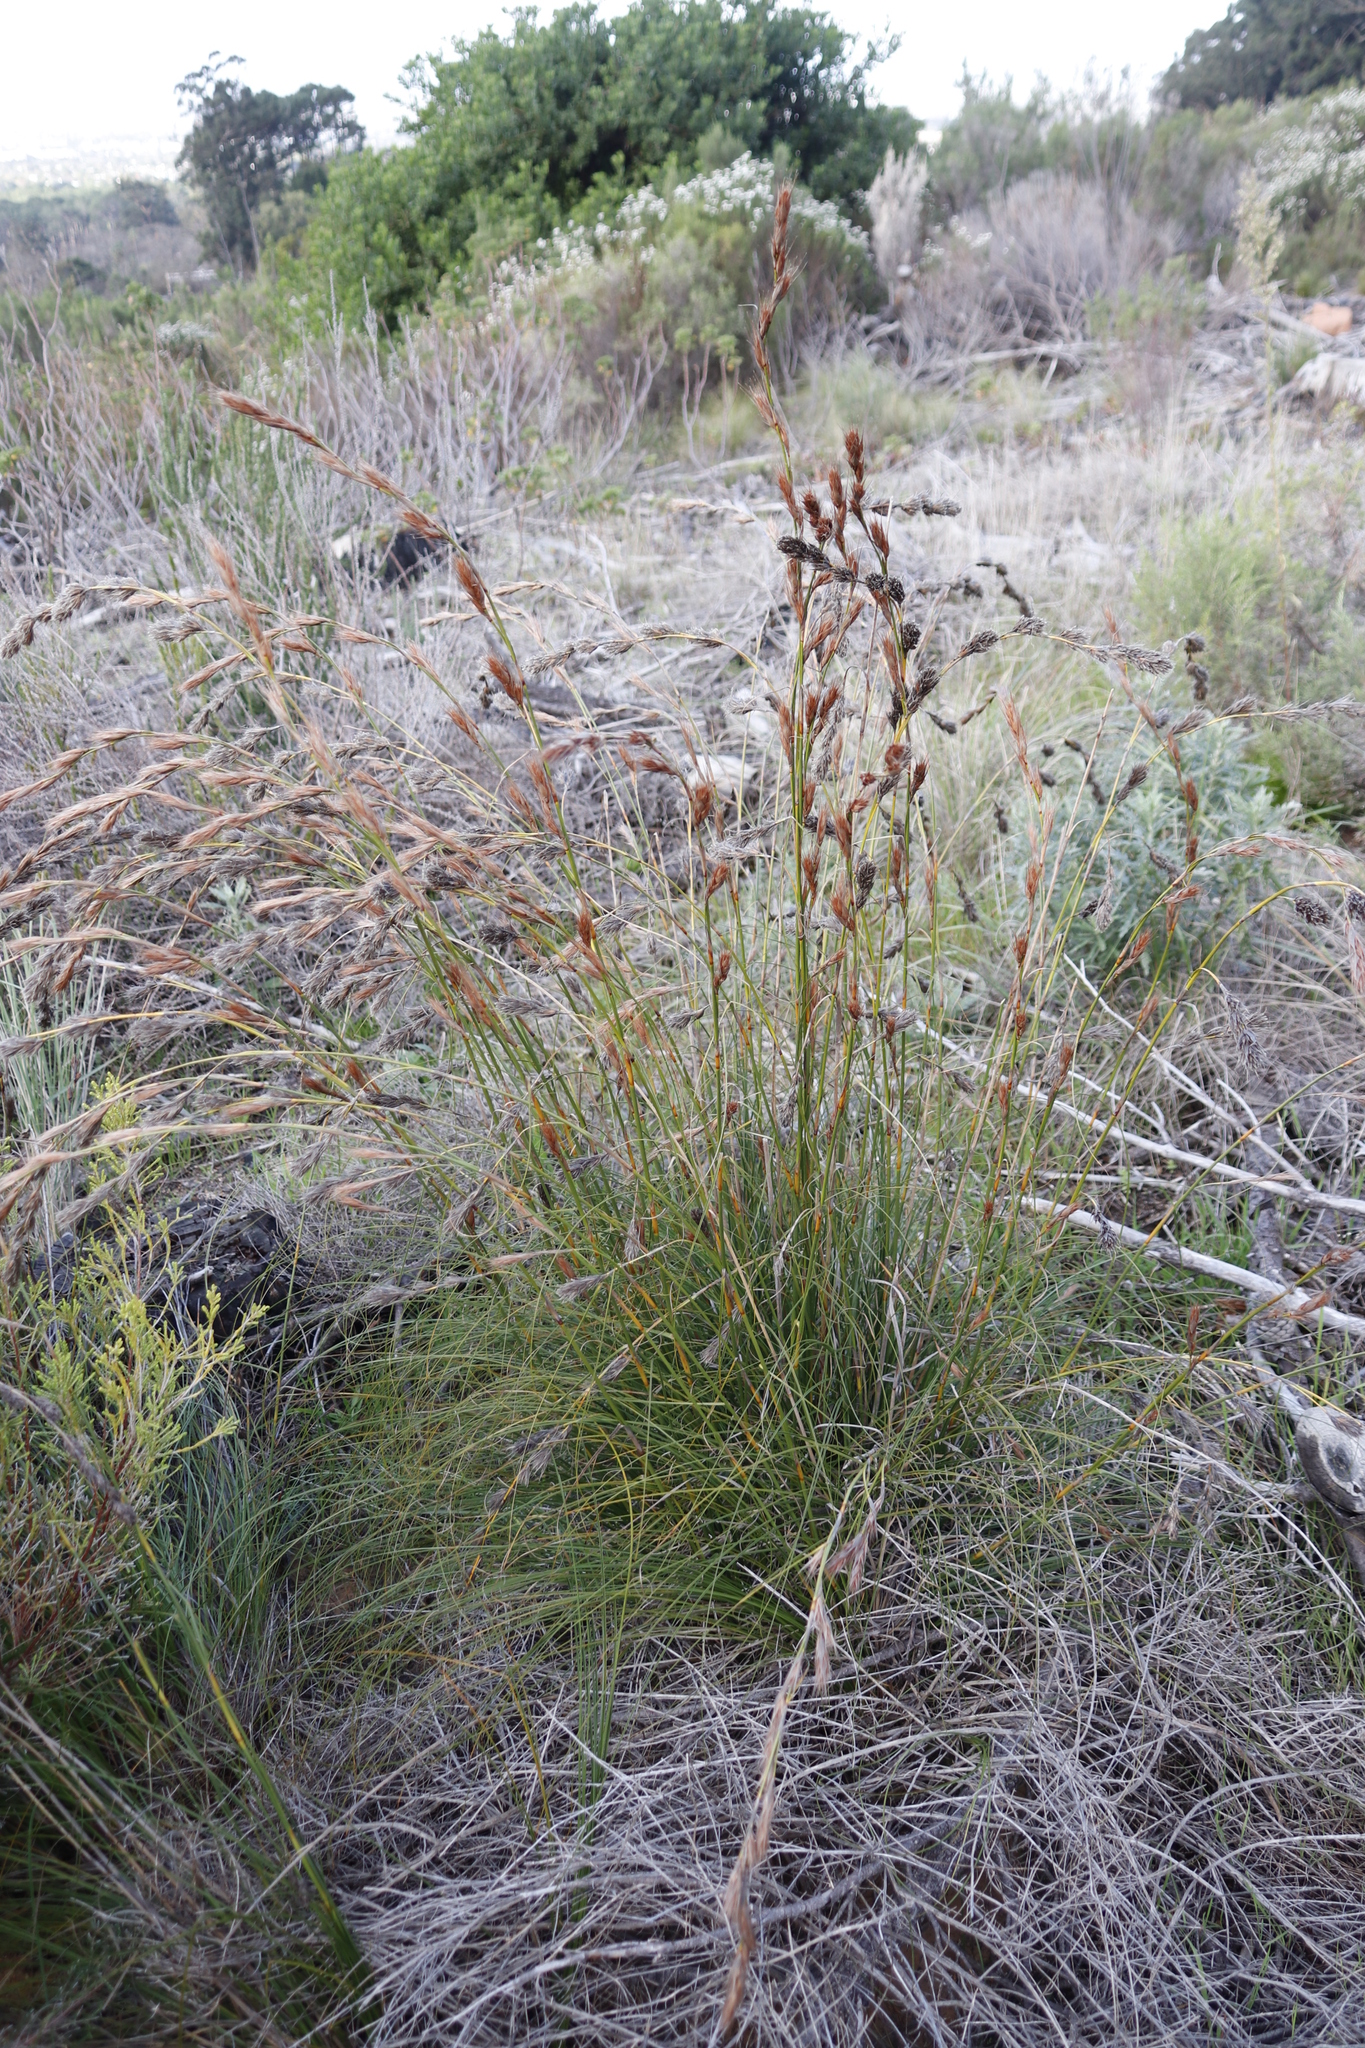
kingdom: Plantae
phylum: Tracheophyta
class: Liliopsida
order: Poales
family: Cyperaceae
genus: Tetraria
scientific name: Tetraria bromoides
